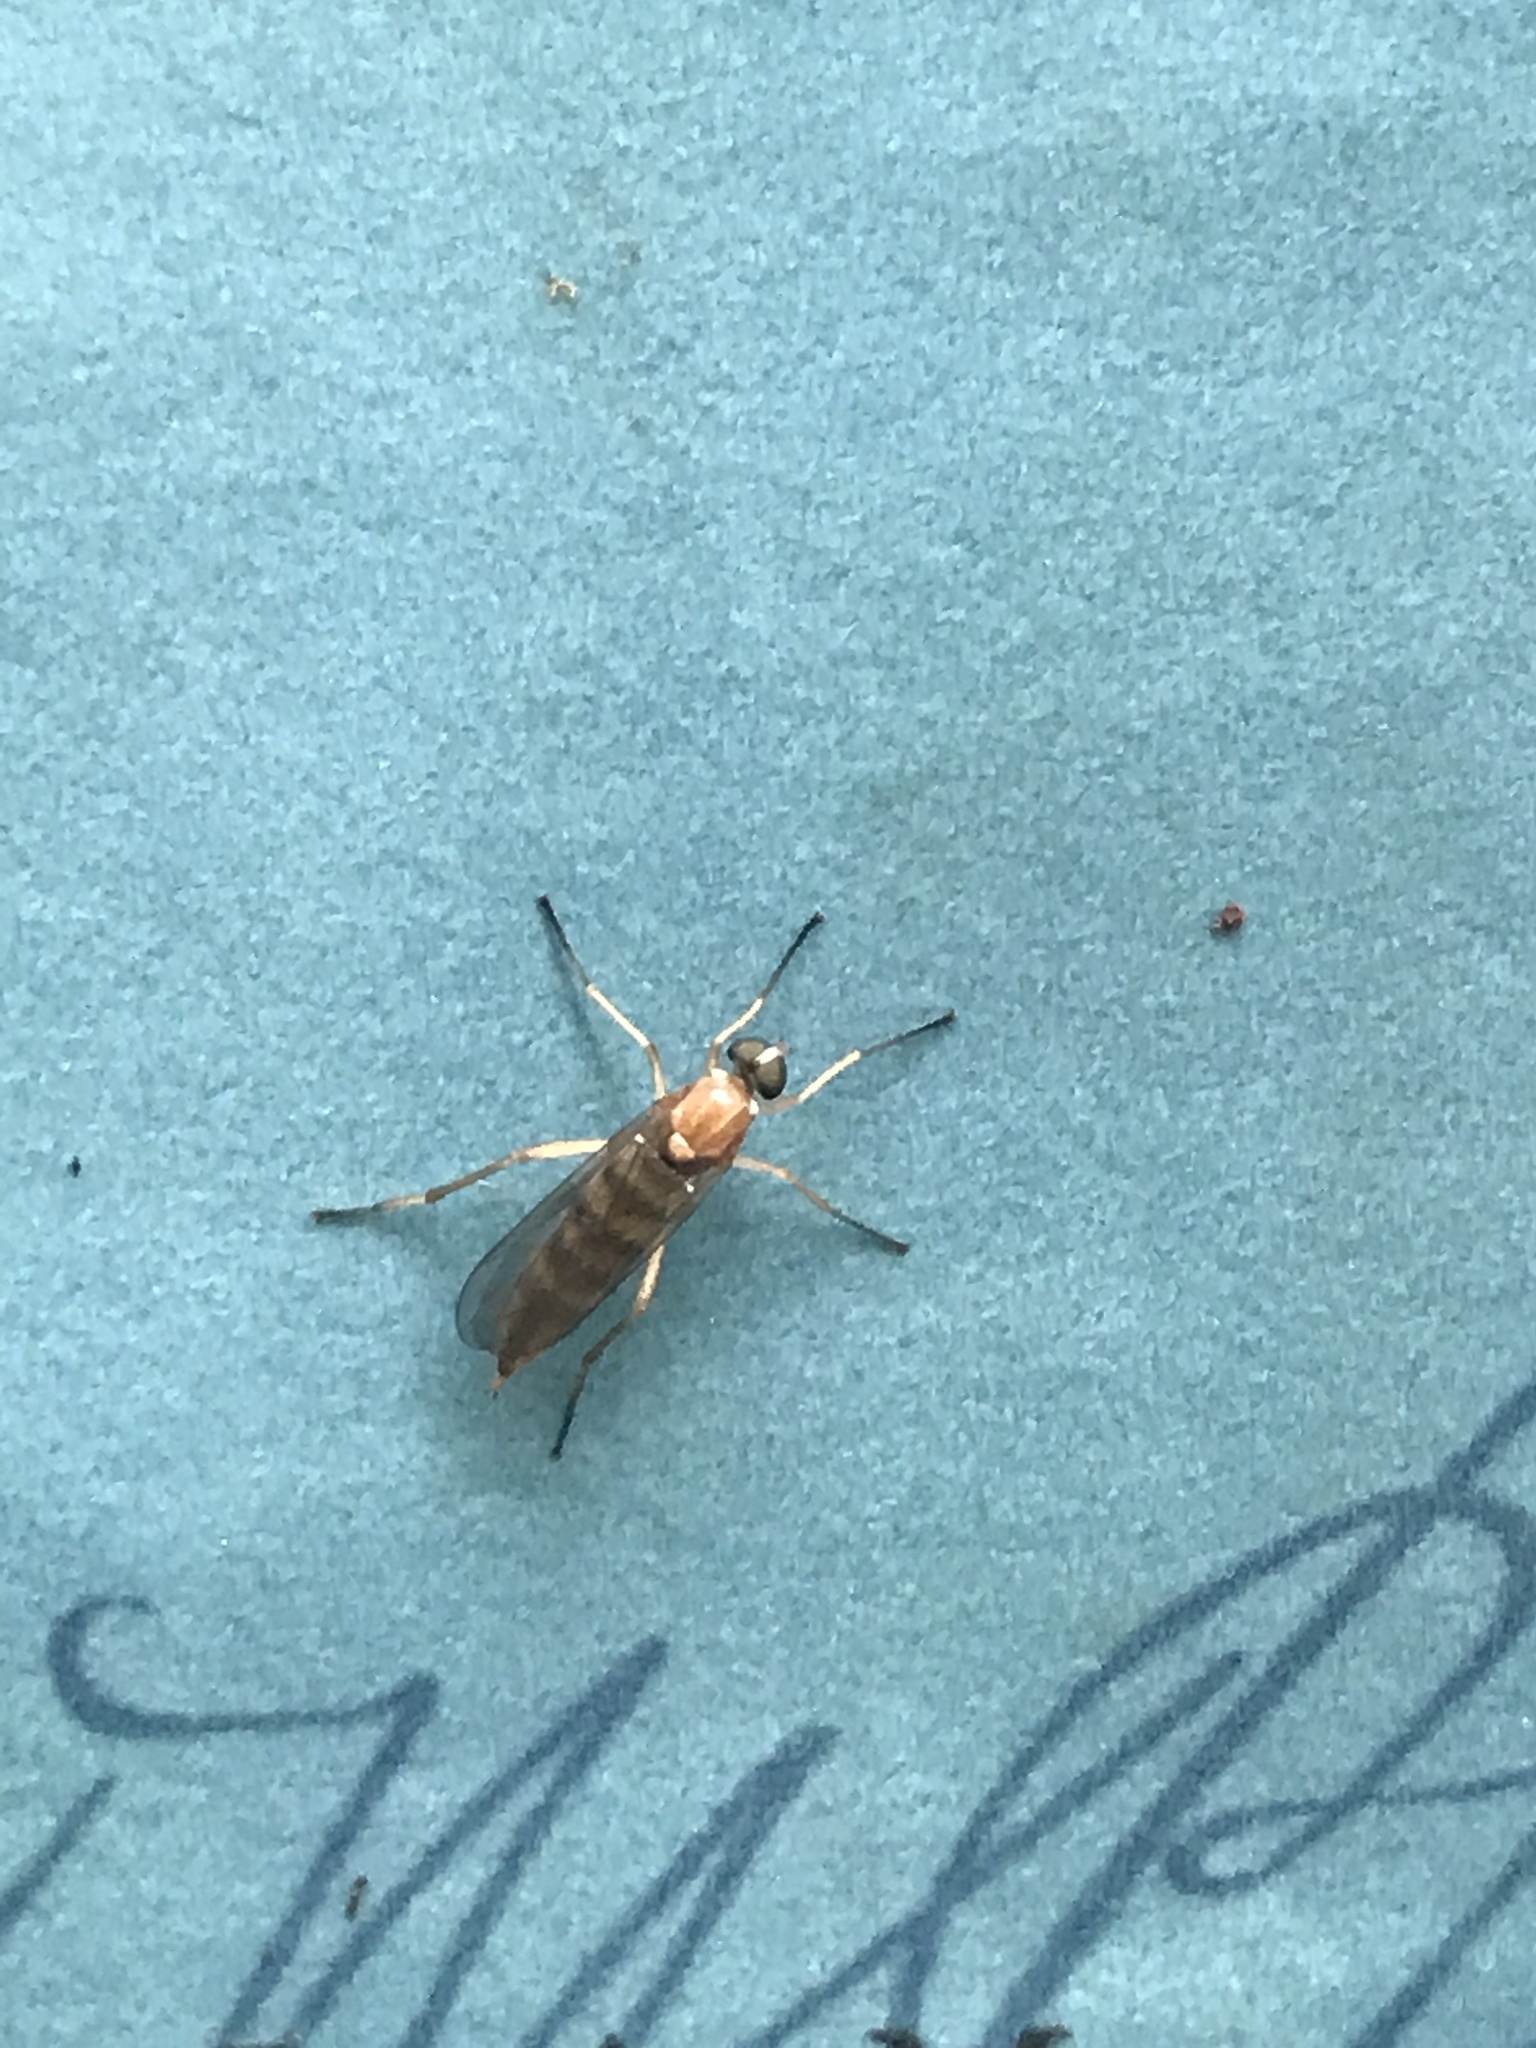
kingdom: Animalia
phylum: Arthropoda
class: Insecta
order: Diptera
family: Xylophagidae
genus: Dialysis
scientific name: Dialysis elongata
